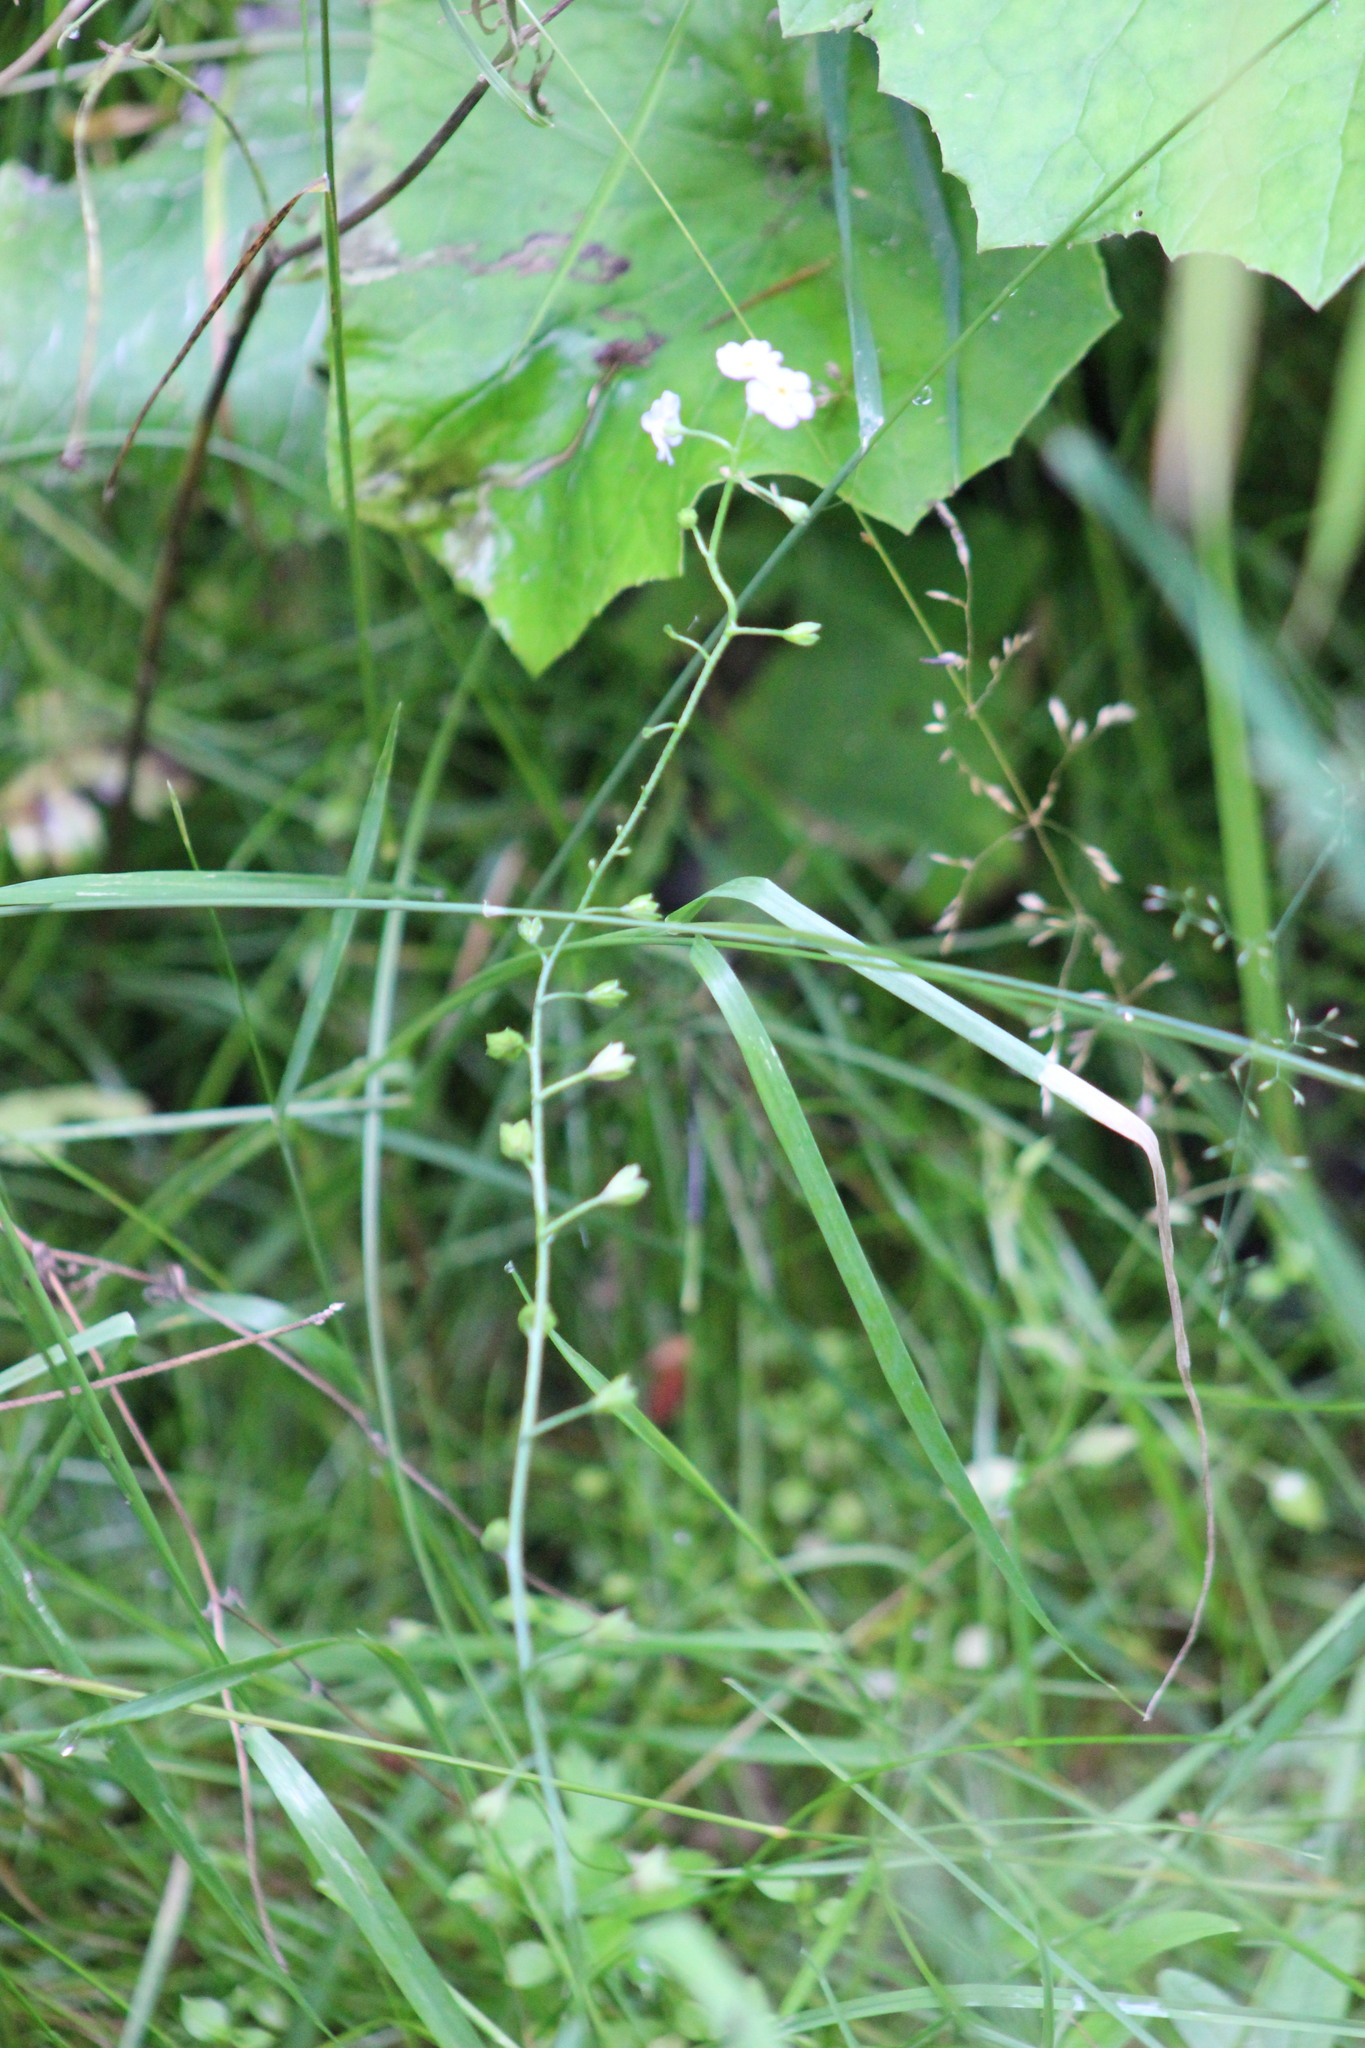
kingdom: Plantae
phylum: Tracheophyta
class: Magnoliopsida
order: Boraginales
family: Boraginaceae
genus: Myosotis
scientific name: Myosotis scorpioides
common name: Water forget-me-not
